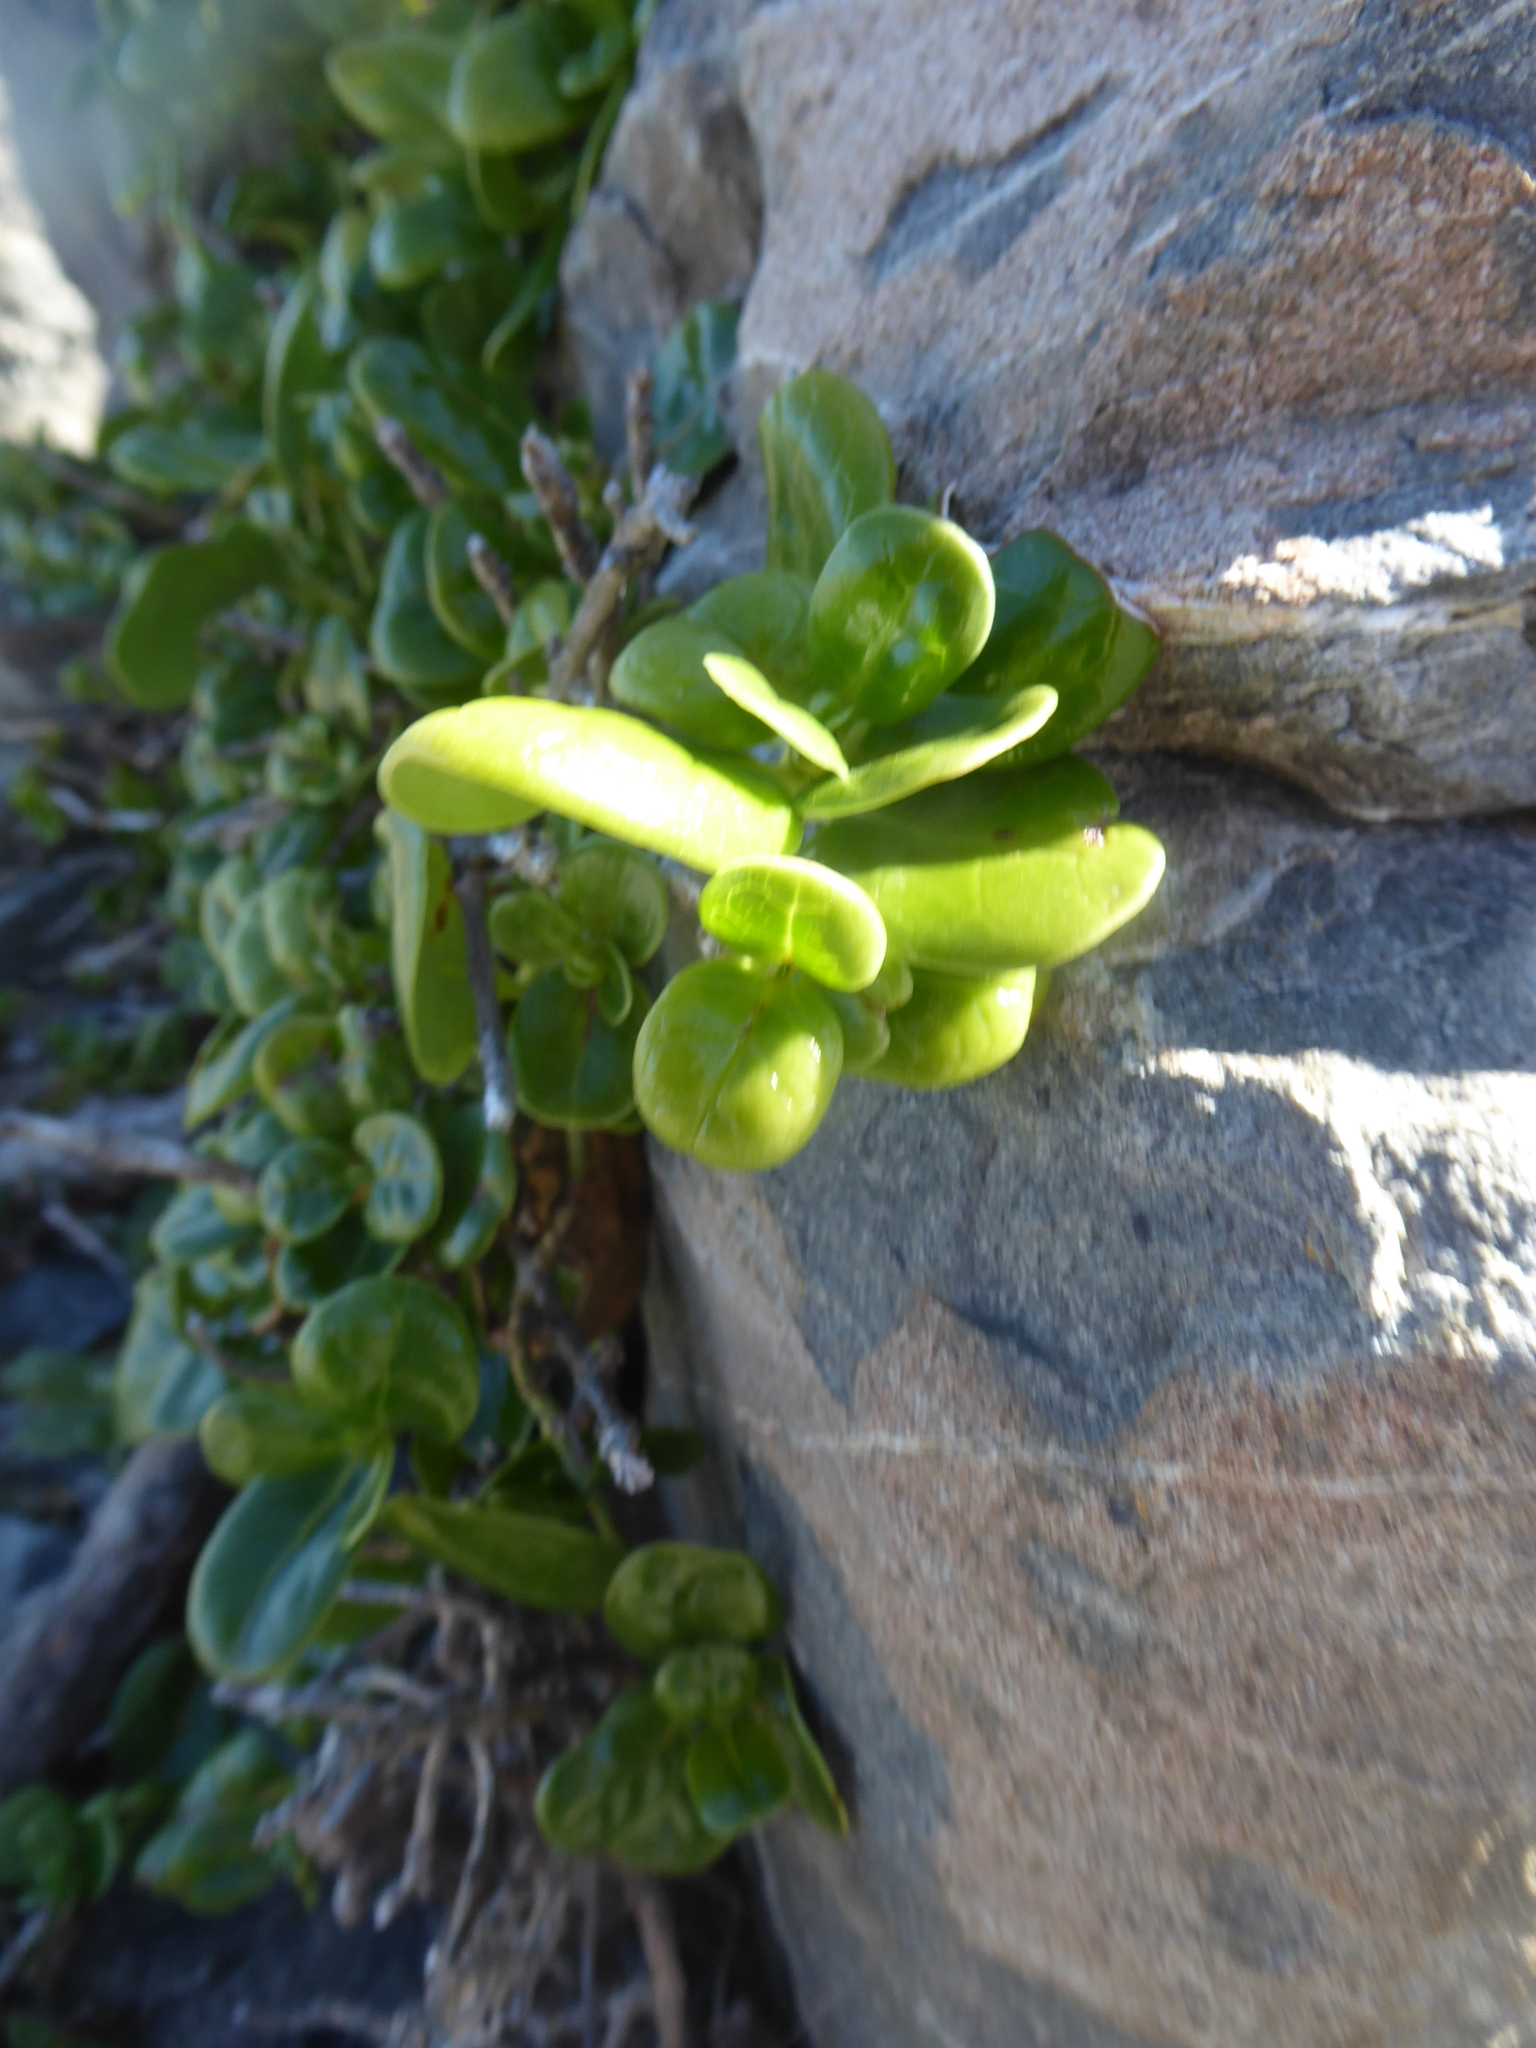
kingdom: Plantae
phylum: Tracheophyta
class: Magnoliopsida
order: Gentianales
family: Rubiaceae
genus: Coprosma
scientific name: Coprosma repens
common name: Tree bedstraw
